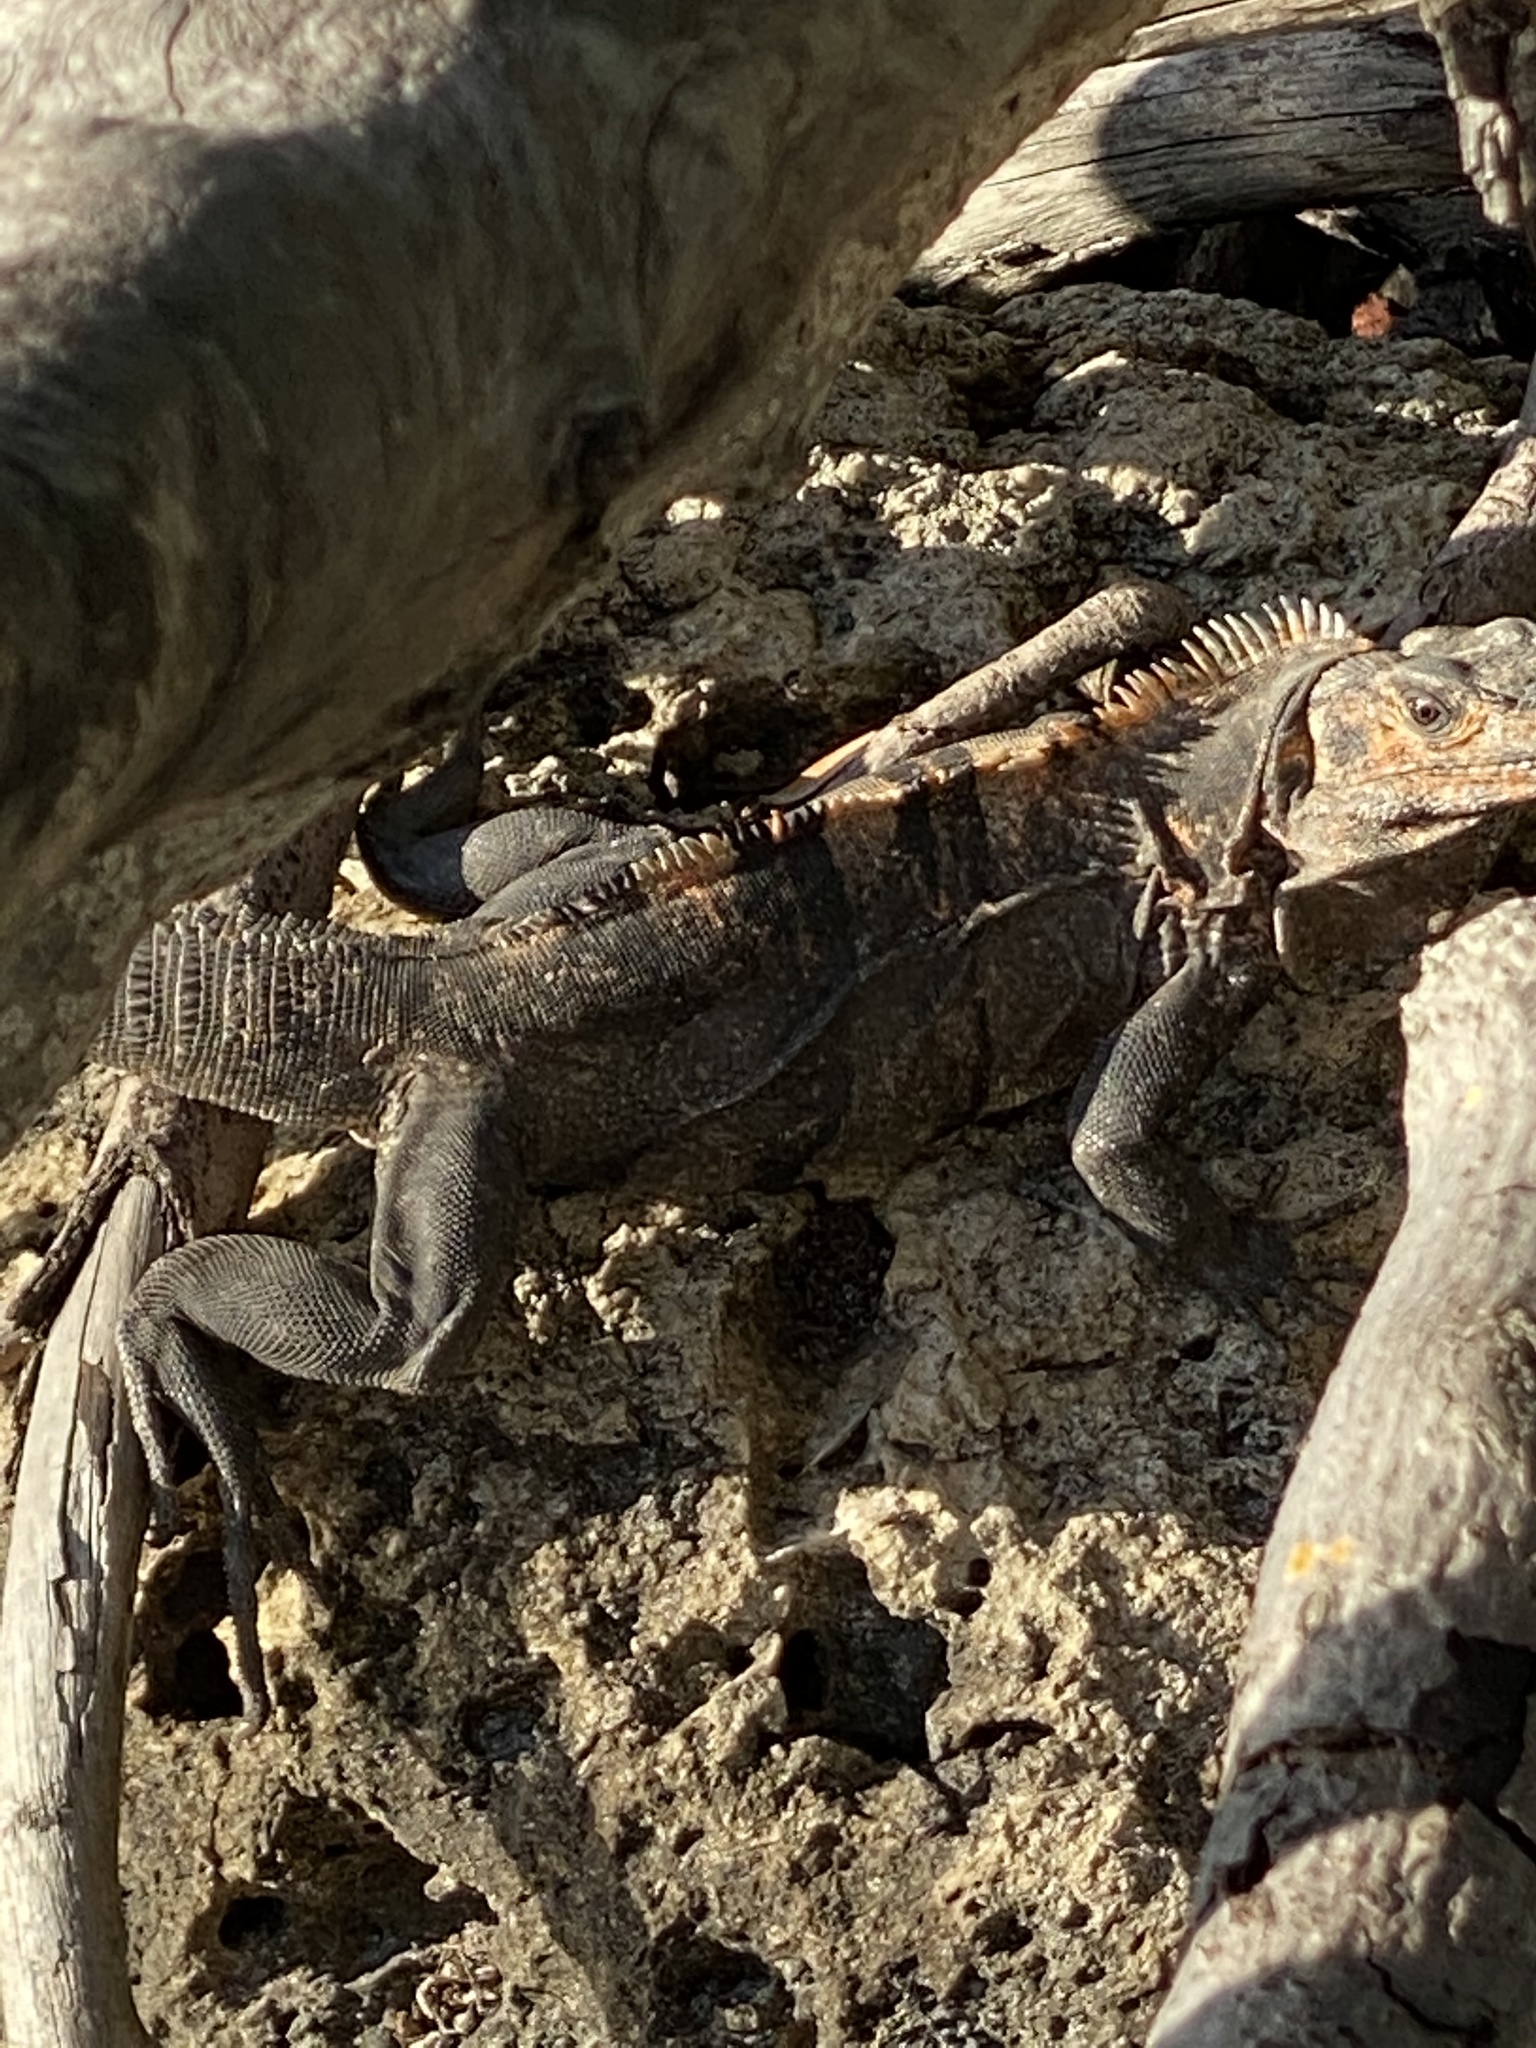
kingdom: Animalia
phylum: Chordata
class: Squamata
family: Iguanidae
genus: Ctenosaura
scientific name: Ctenosaura similis
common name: Black spiny-tailed iguana
